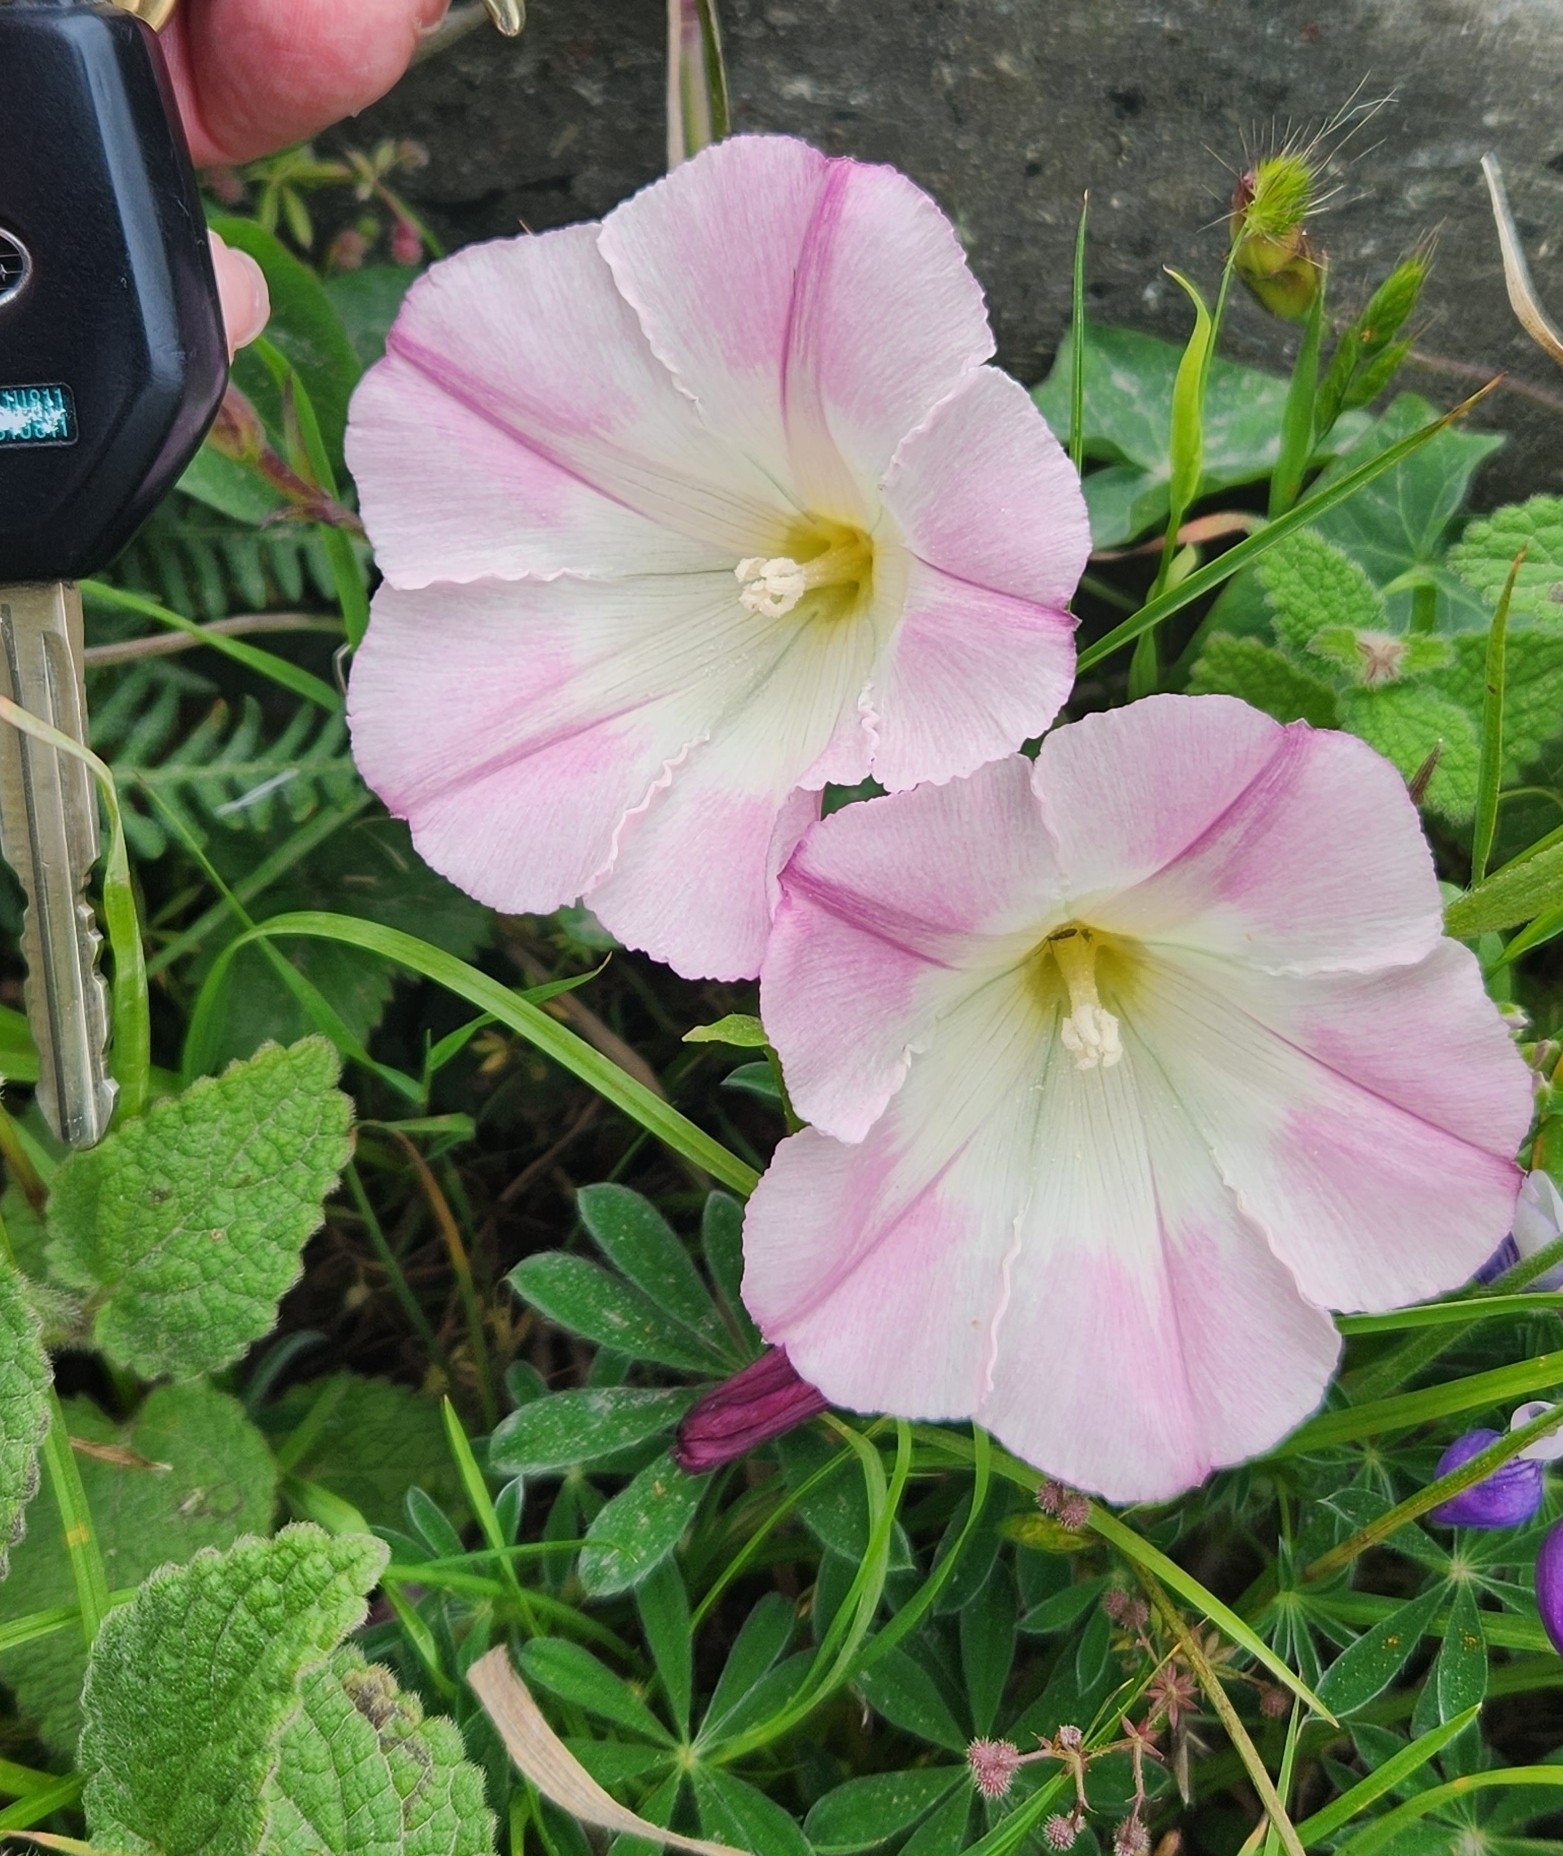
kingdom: Plantae
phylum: Tracheophyta
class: Magnoliopsida
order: Solanales
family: Convolvulaceae
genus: Calystegia
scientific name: Calystegia purpurata
